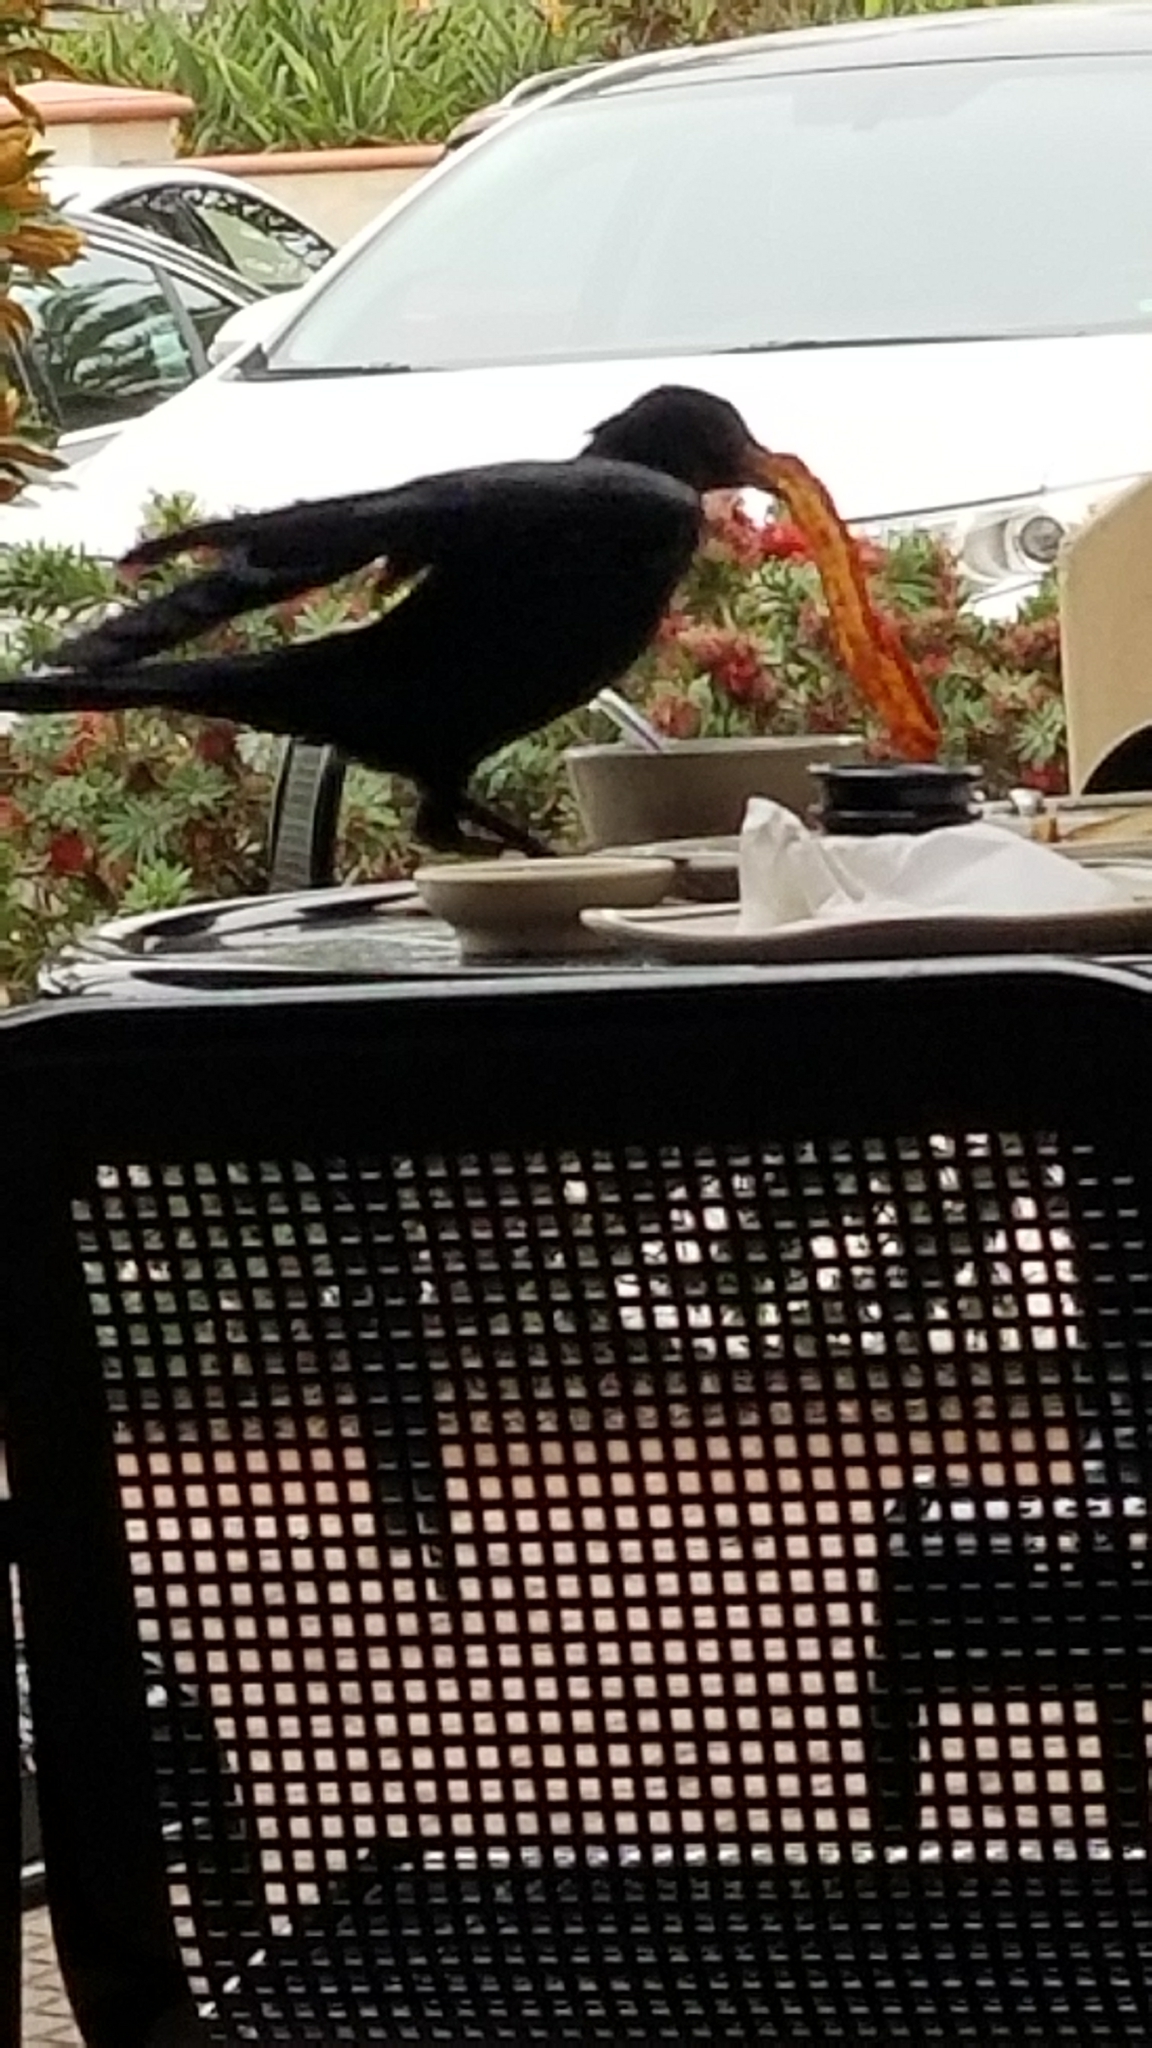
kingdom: Animalia
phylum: Chordata
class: Aves
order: Passeriformes
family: Corvidae
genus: Corvus
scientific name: Corvus brachyrhynchos
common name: American crow
